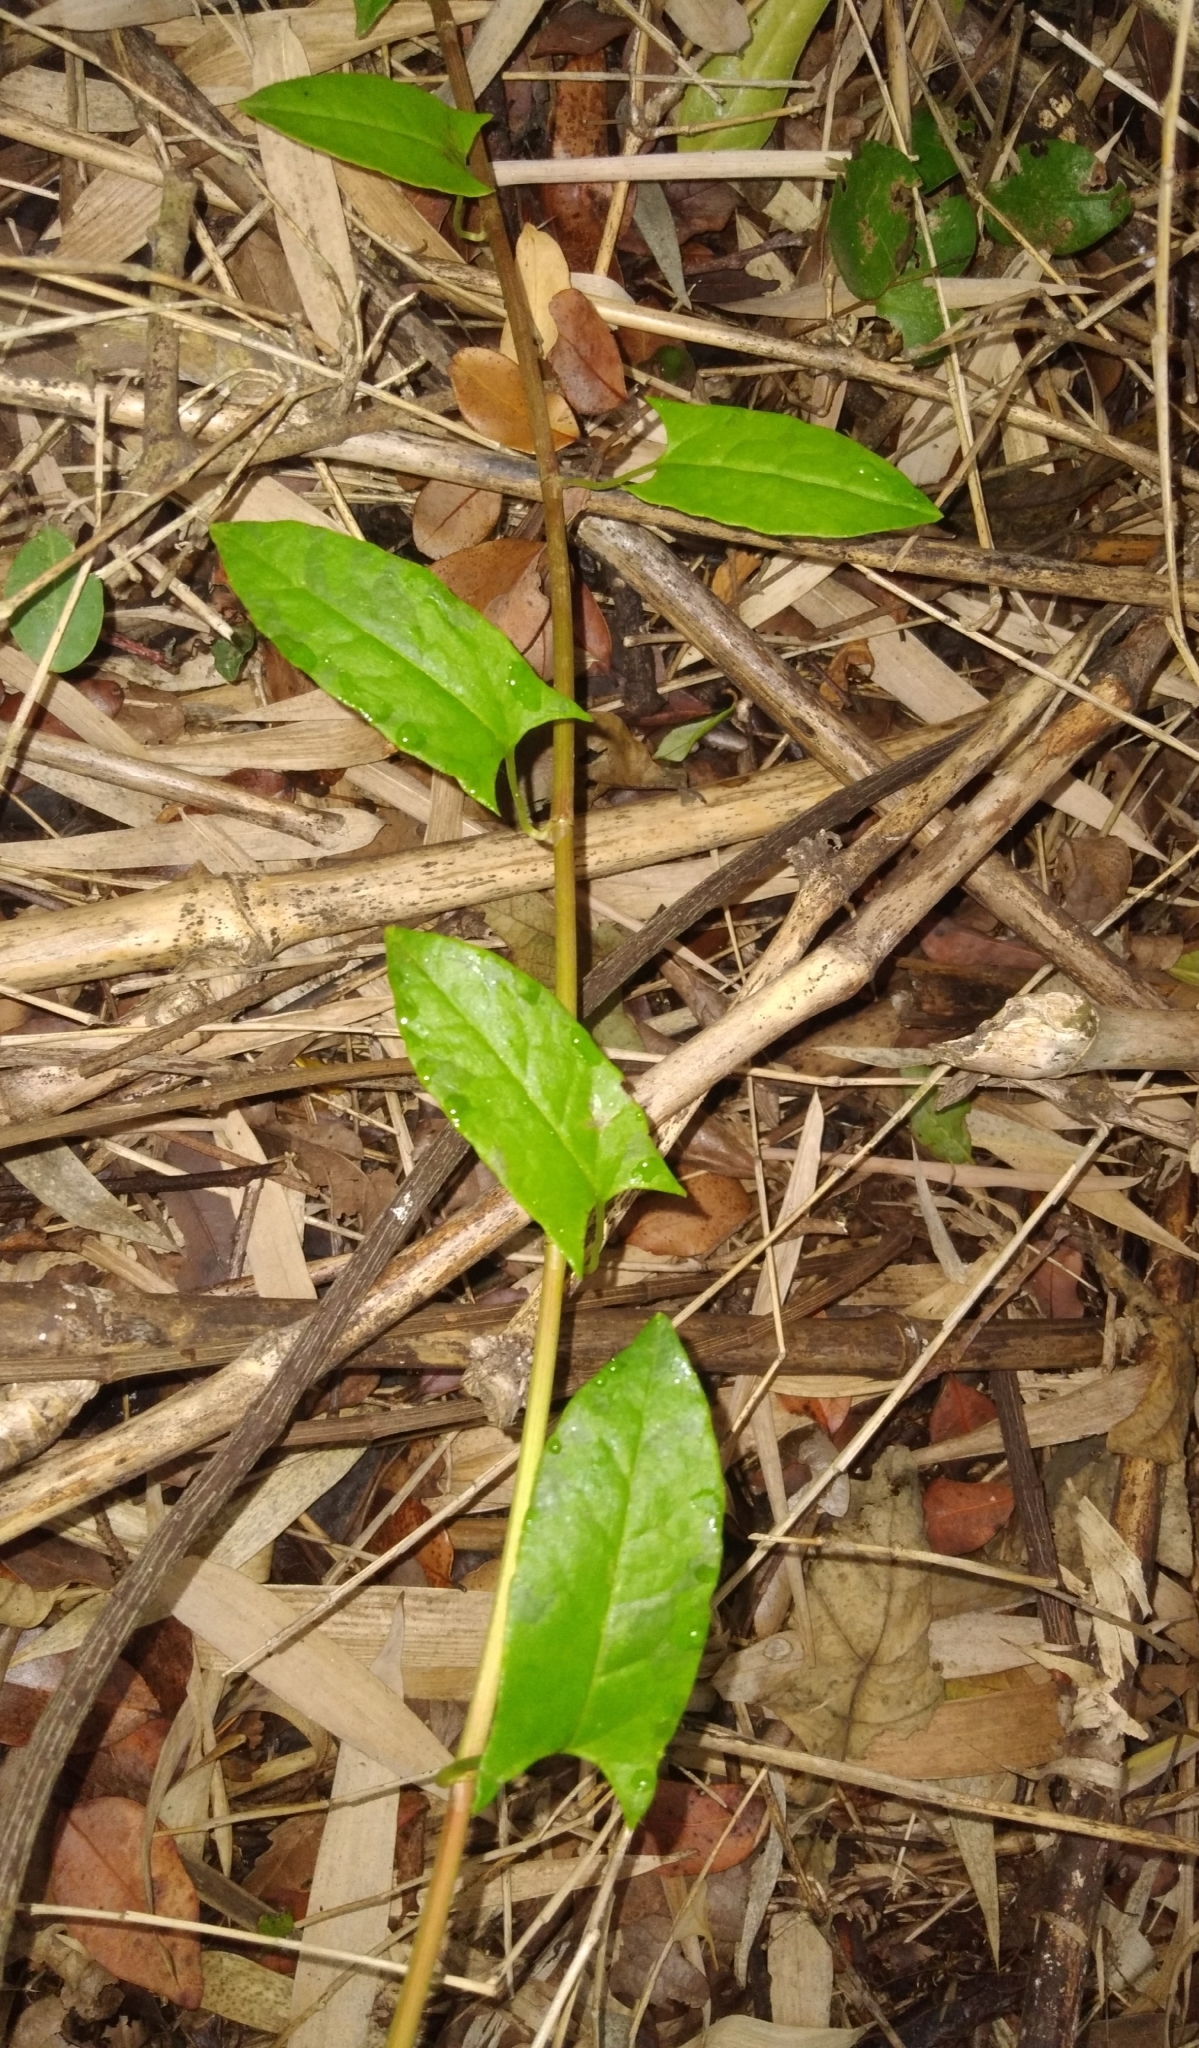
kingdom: Plantae
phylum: Tracheophyta
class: Magnoliopsida
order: Caryophyllales
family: Polygonaceae
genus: Muehlenbeckia
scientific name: Muehlenbeckia hastulata
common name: Wirevine
